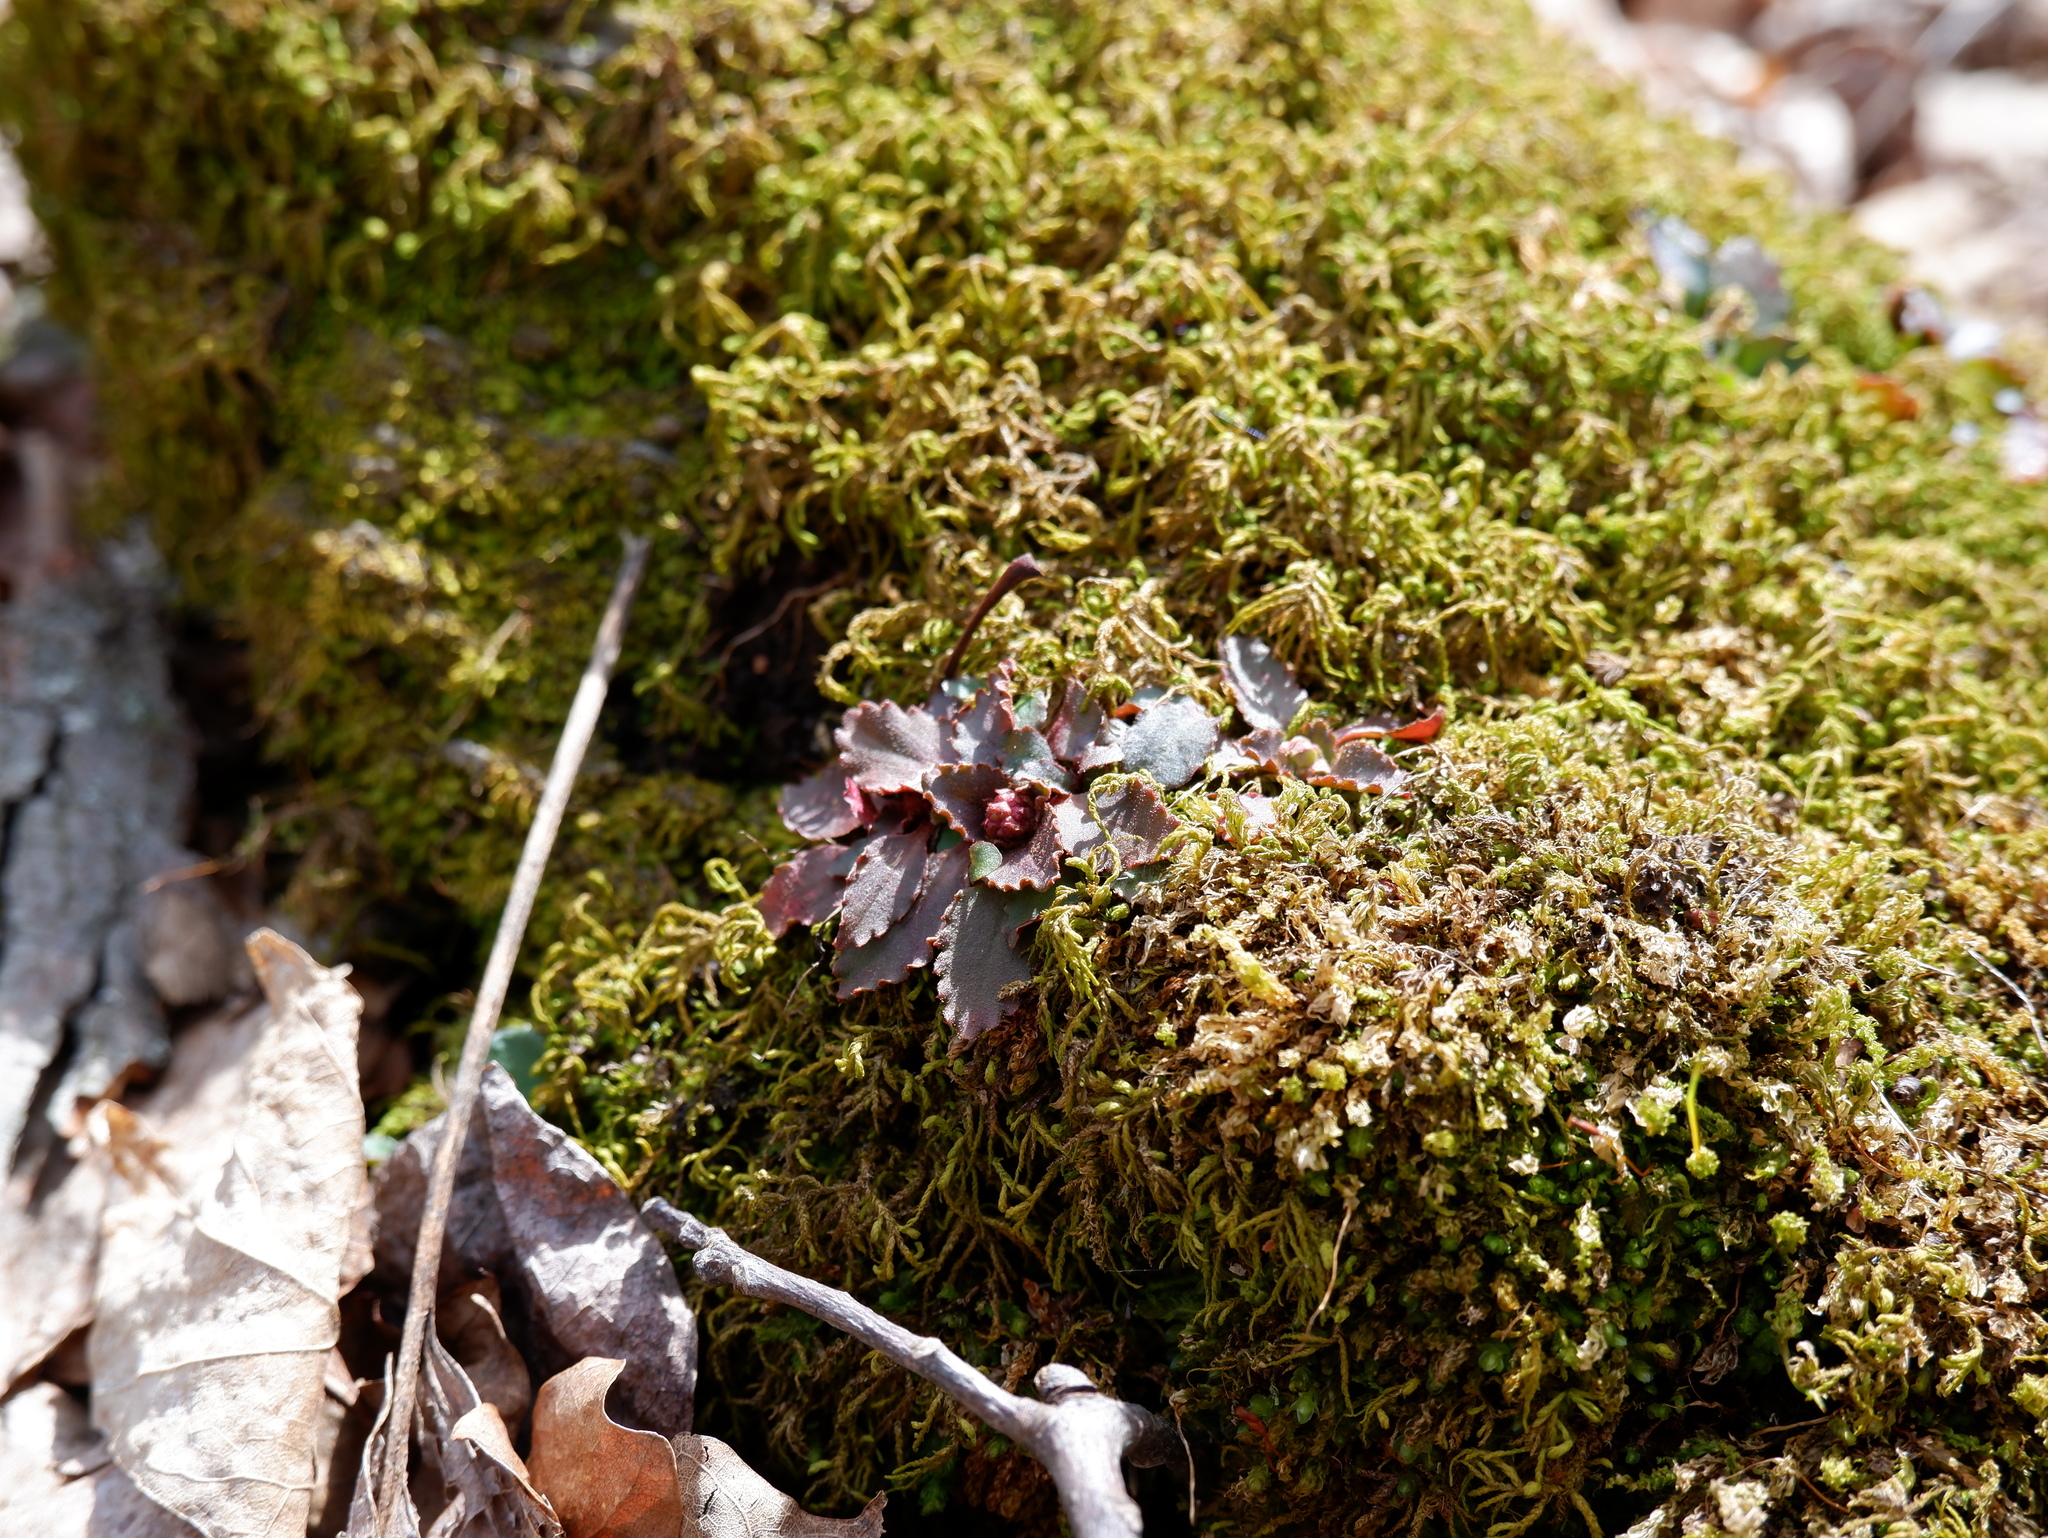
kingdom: Plantae
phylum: Tracheophyta
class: Magnoliopsida
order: Saxifragales
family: Saxifragaceae
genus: Micranthes
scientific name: Micranthes virginiensis
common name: Early saxifrage
